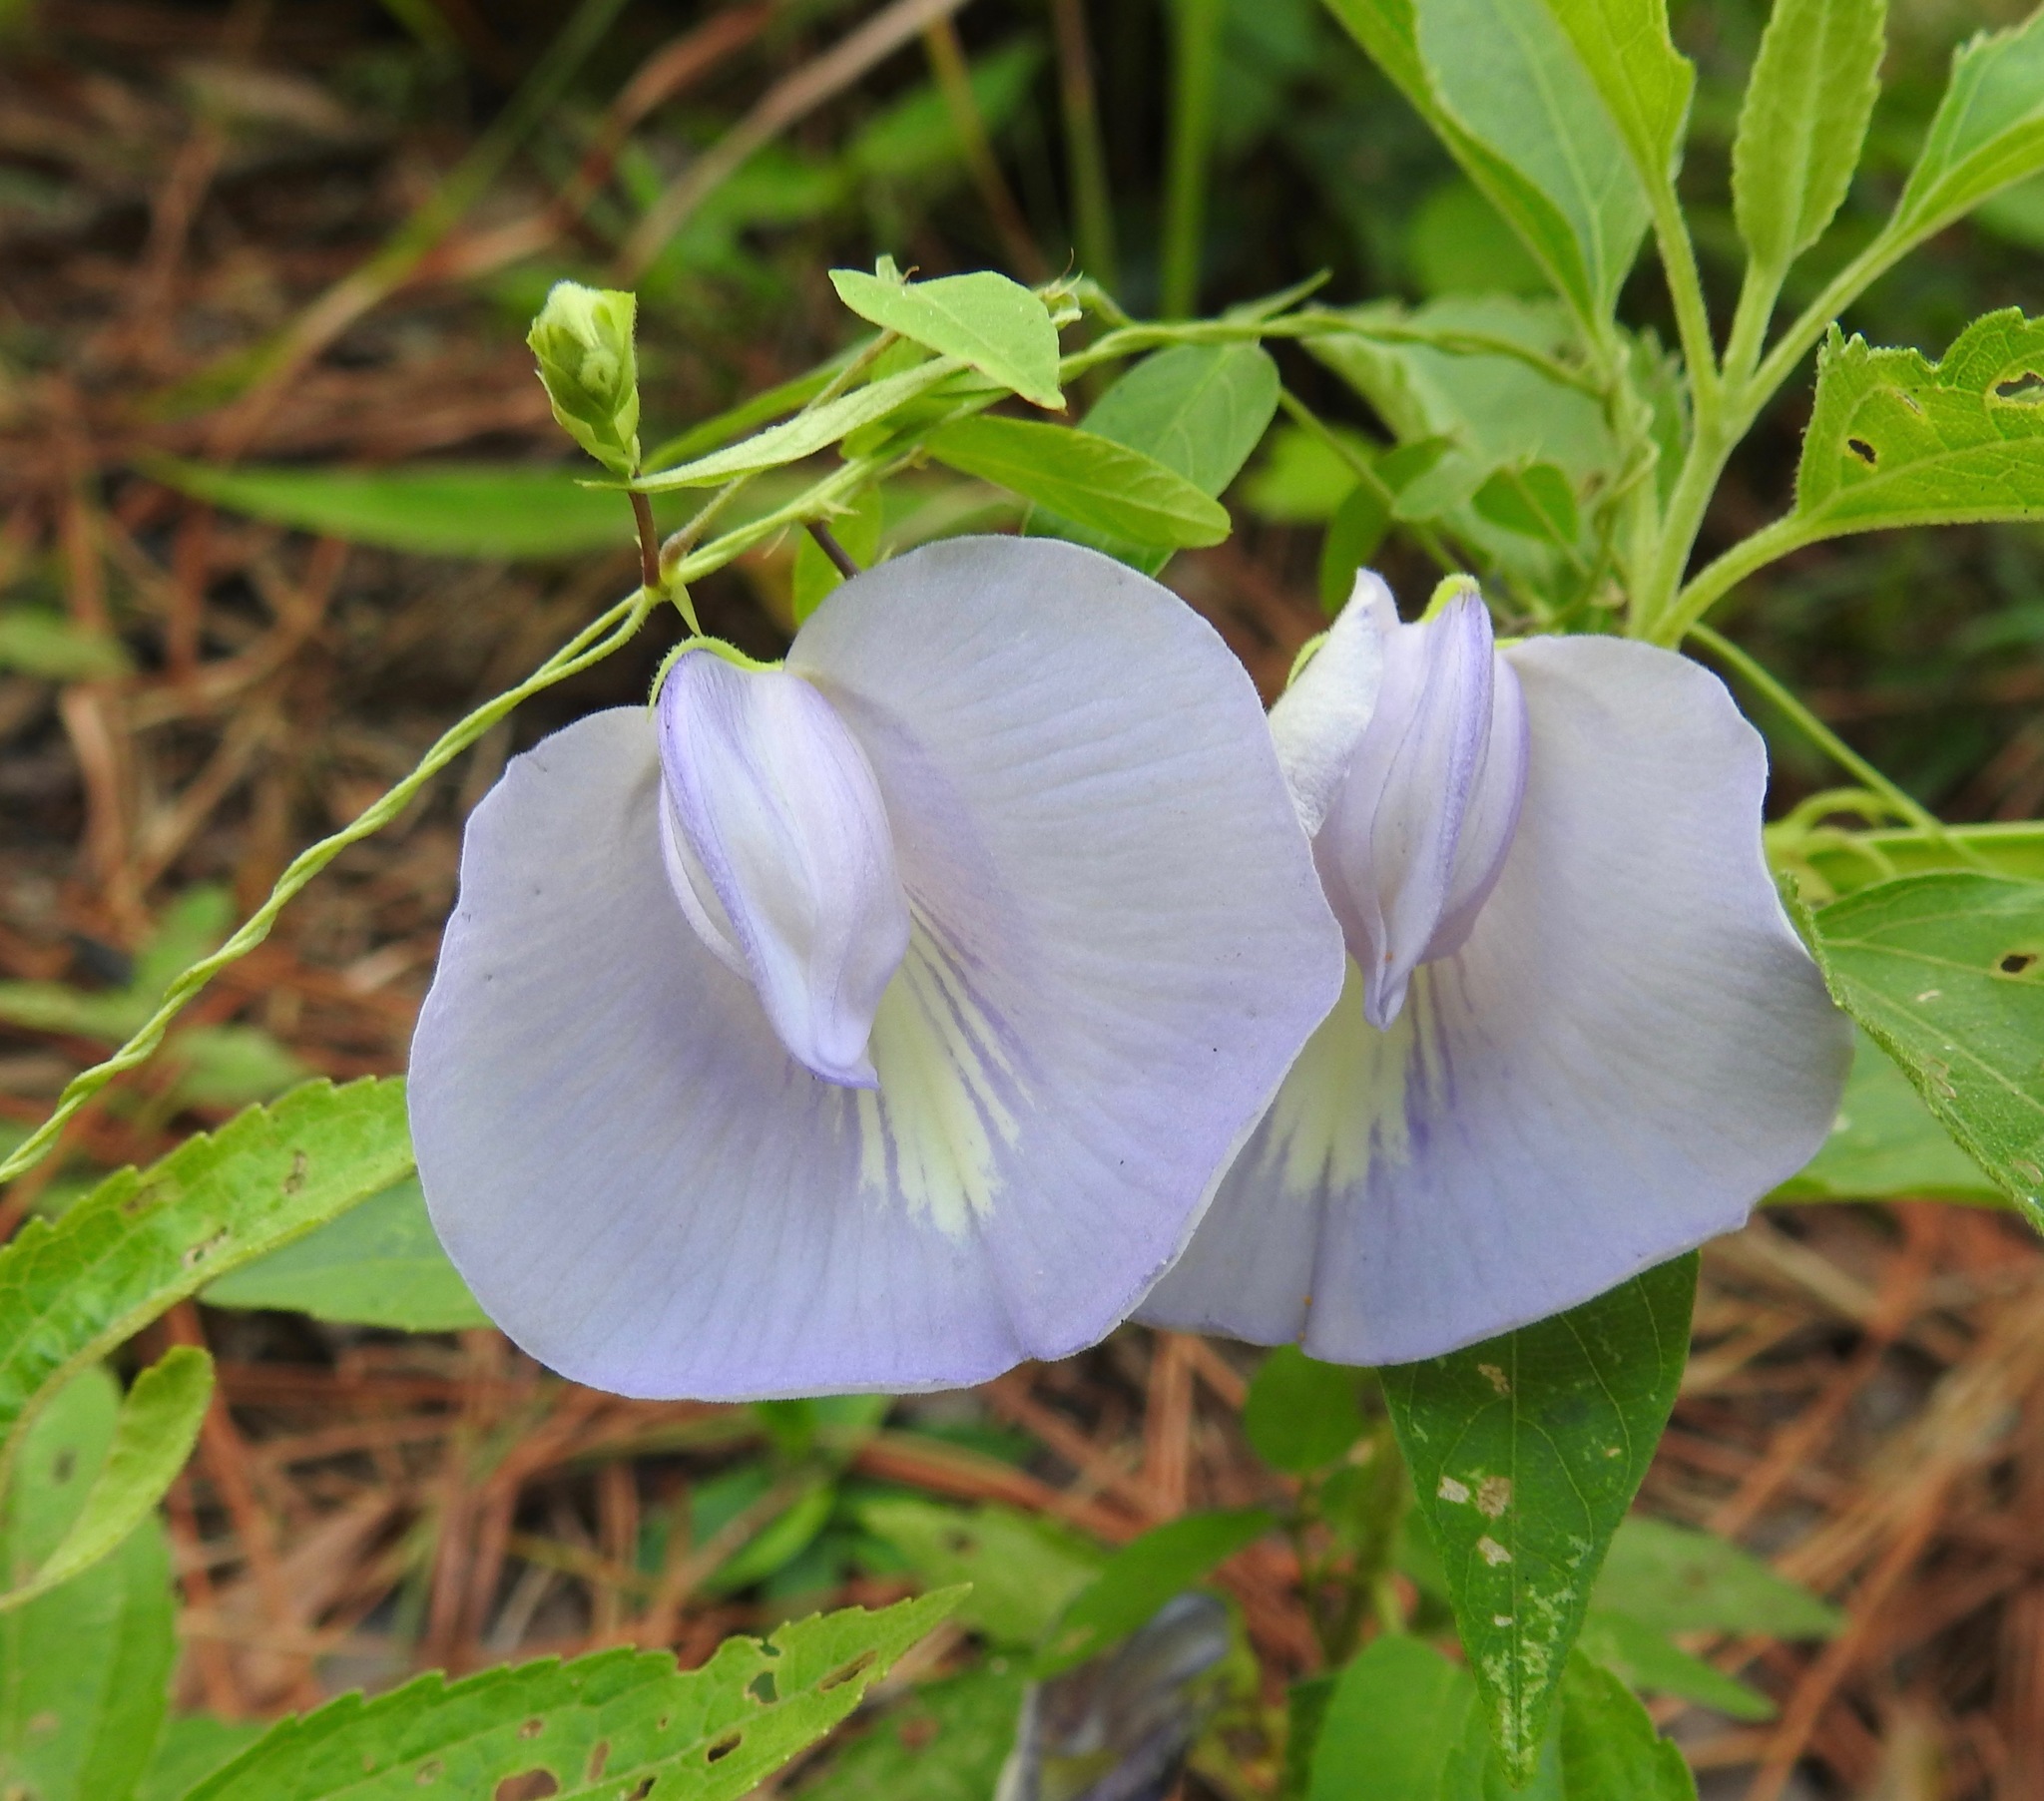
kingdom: Plantae
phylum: Tracheophyta
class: Magnoliopsida
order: Fabales
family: Fabaceae
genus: Centrosema
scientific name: Centrosema virginianum
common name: Butterfly-pea
